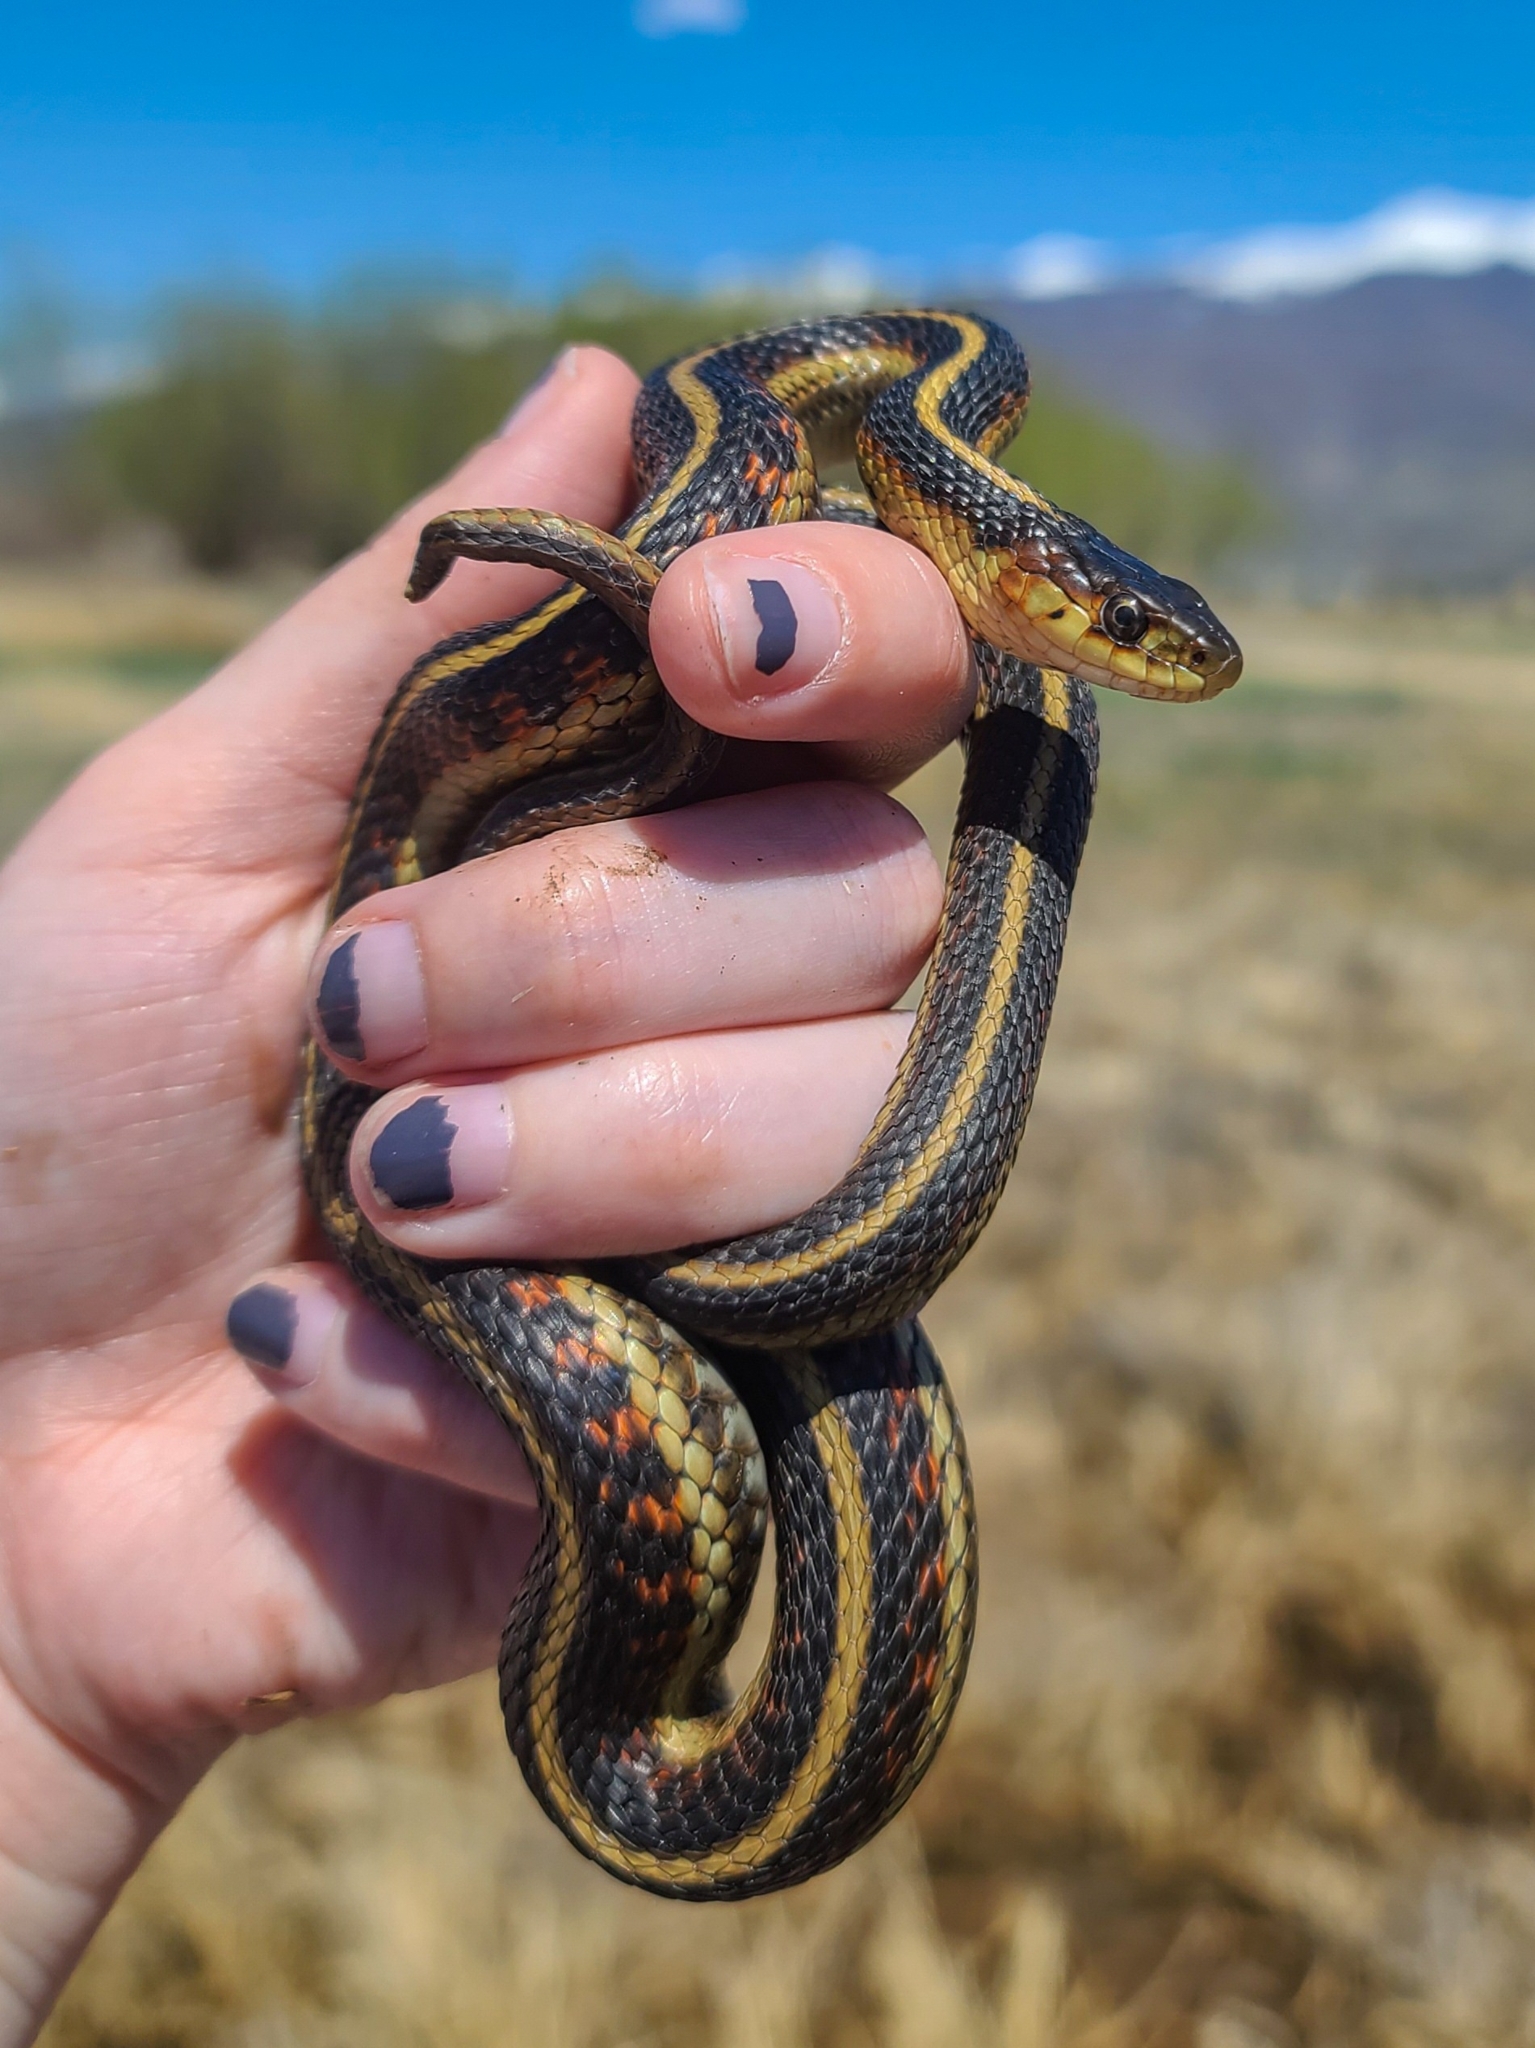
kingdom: Animalia
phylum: Chordata
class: Squamata
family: Colubridae
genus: Thamnophis
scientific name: Thamnophis sirtalis
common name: Common garter snake
